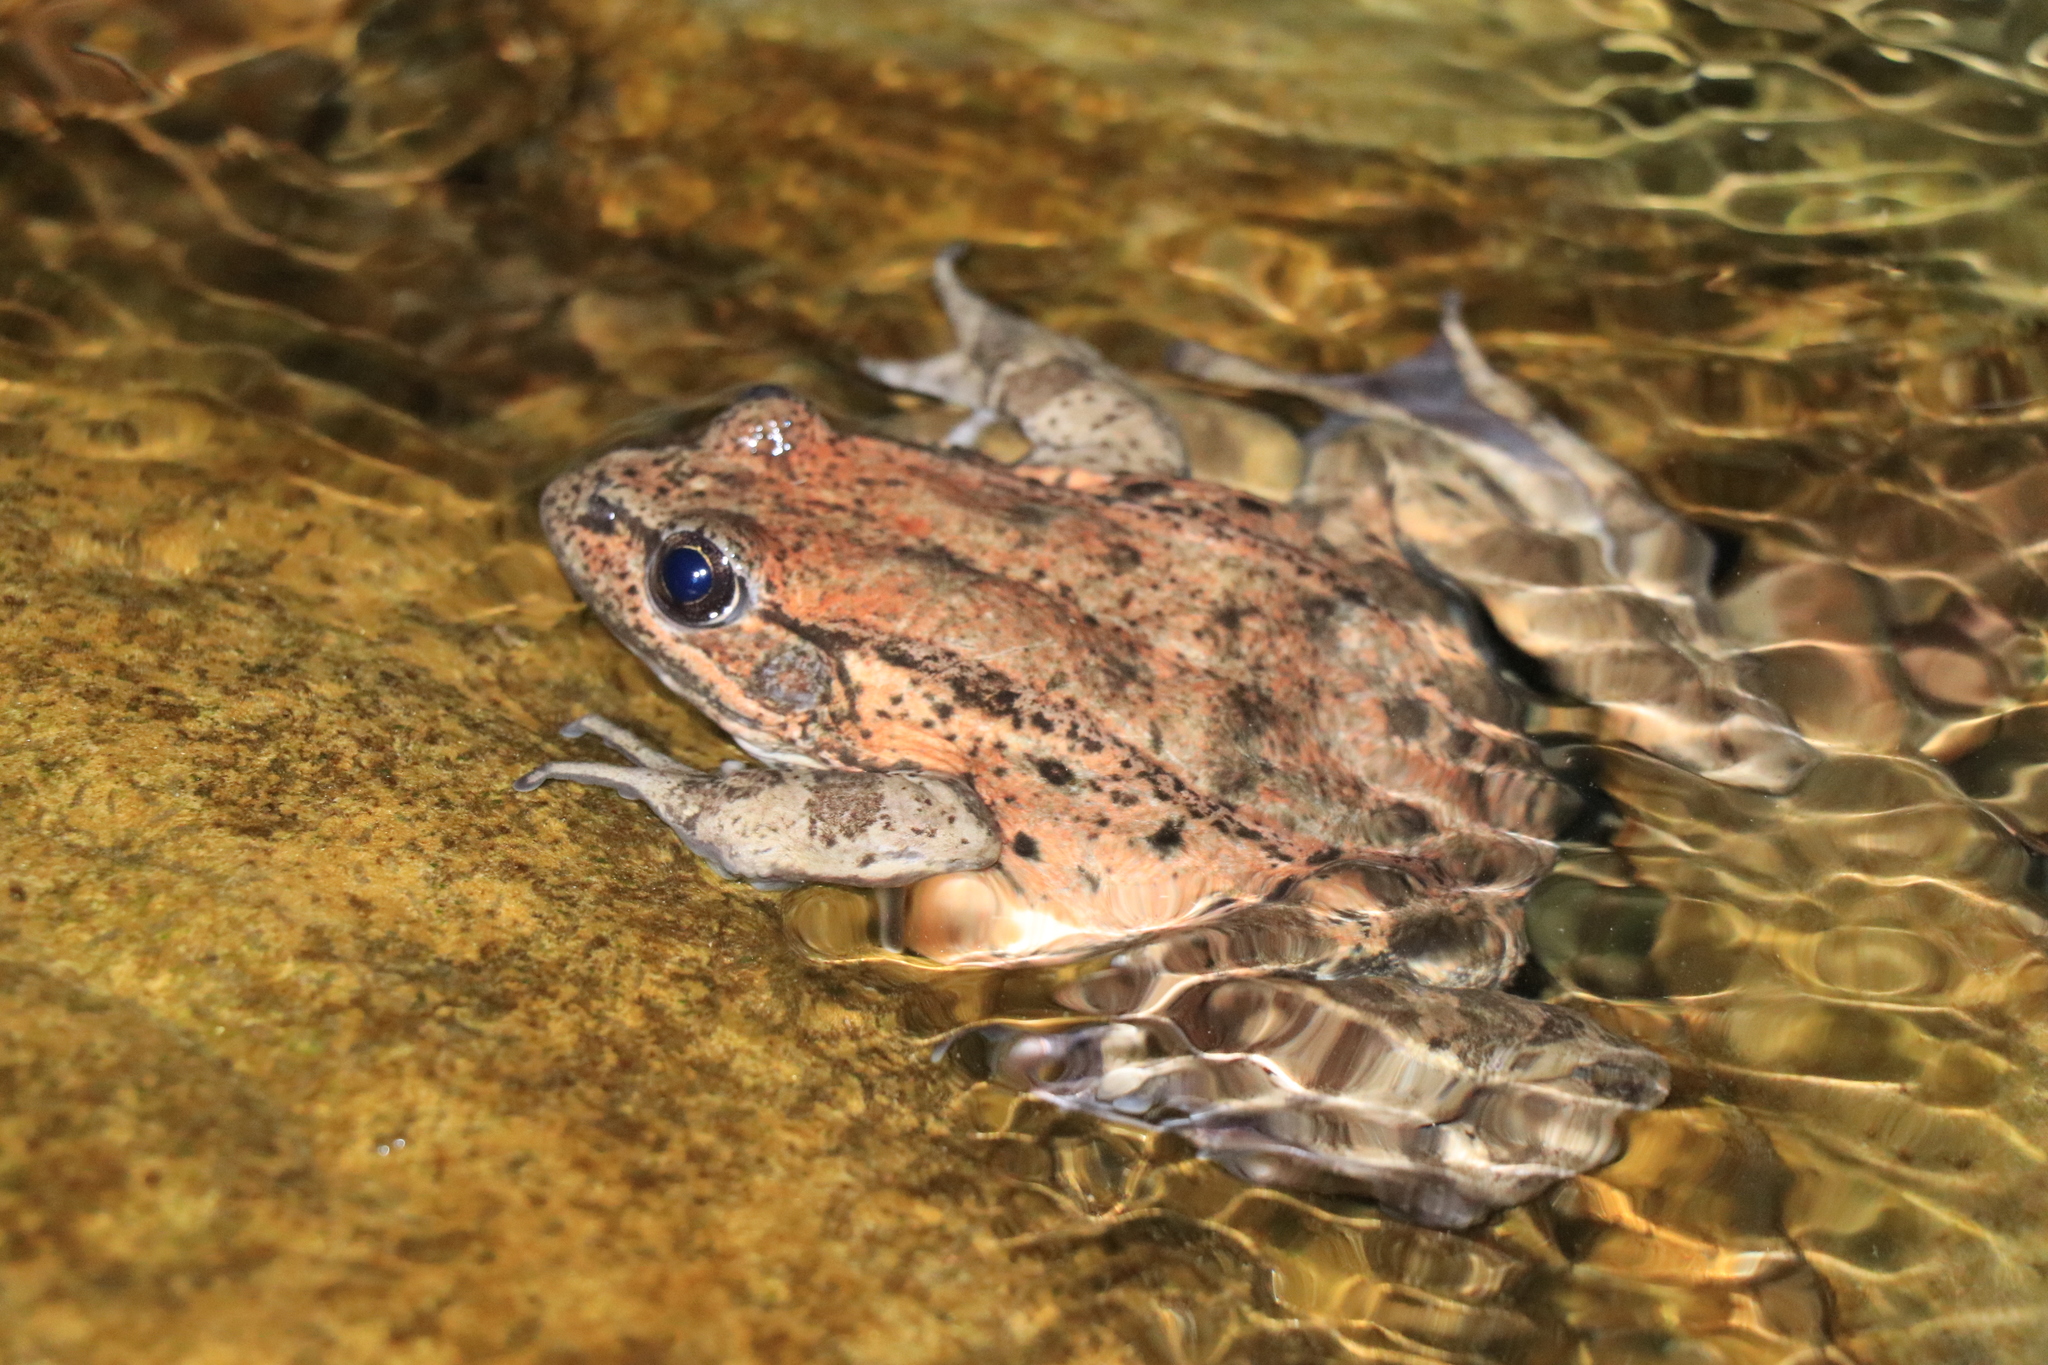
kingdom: Animalia
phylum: Chordata
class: Amphibia
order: Anura
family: Ranidae
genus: Rana
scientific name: Rana draytonii
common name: California red-legged frog
